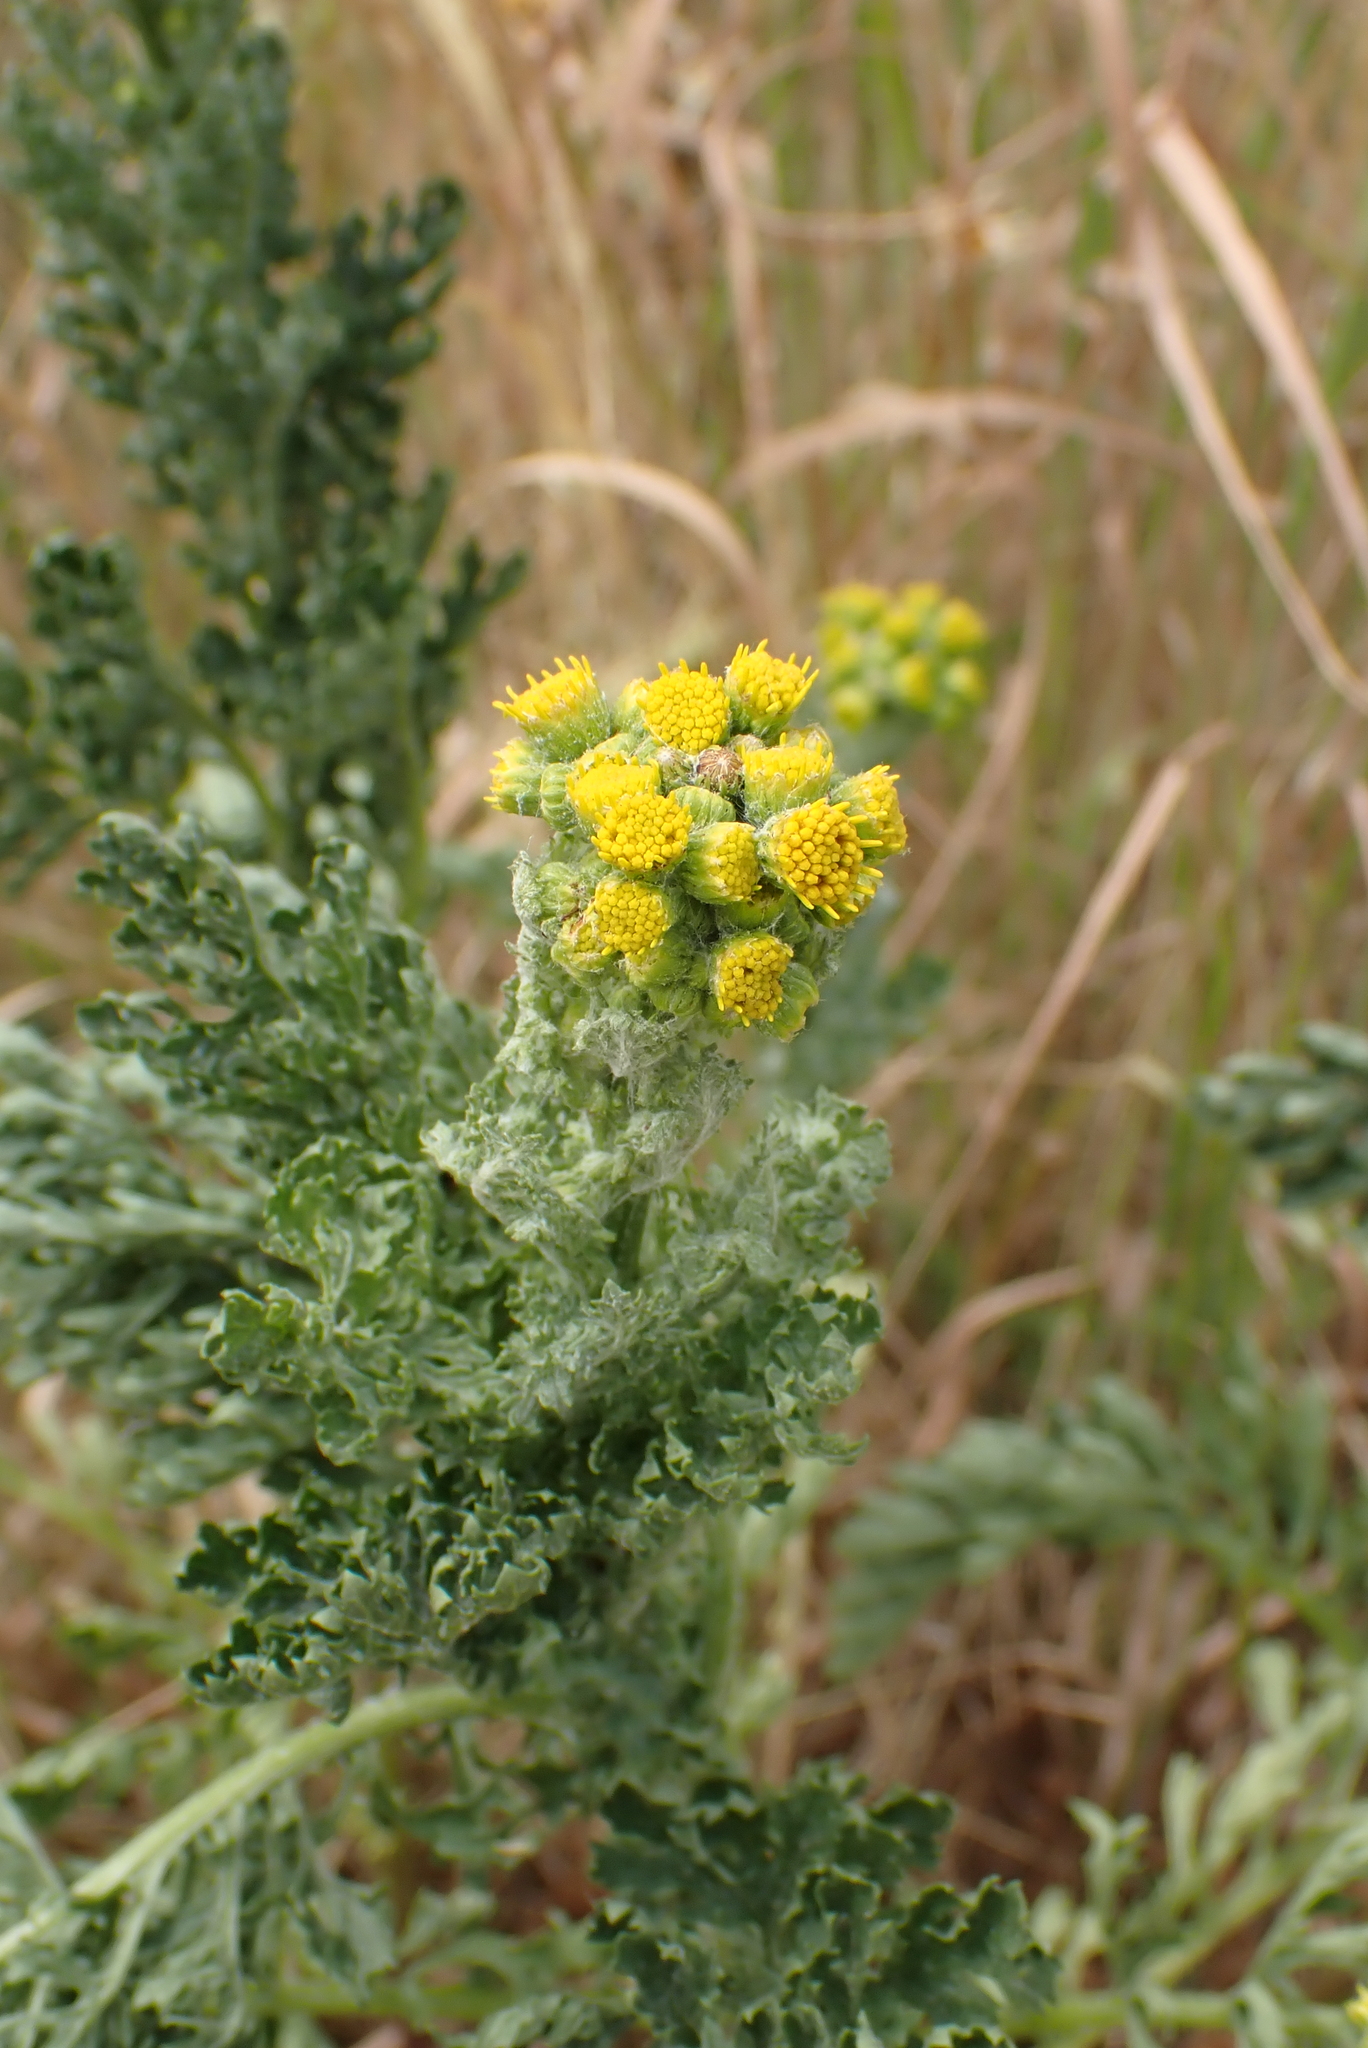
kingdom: Plantae
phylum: Tracheophyta
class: Magnoliopsida
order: Asterales
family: Asteraceae
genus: Jacobaea
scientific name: Jacobaea vulgaris
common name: Stinking willie
